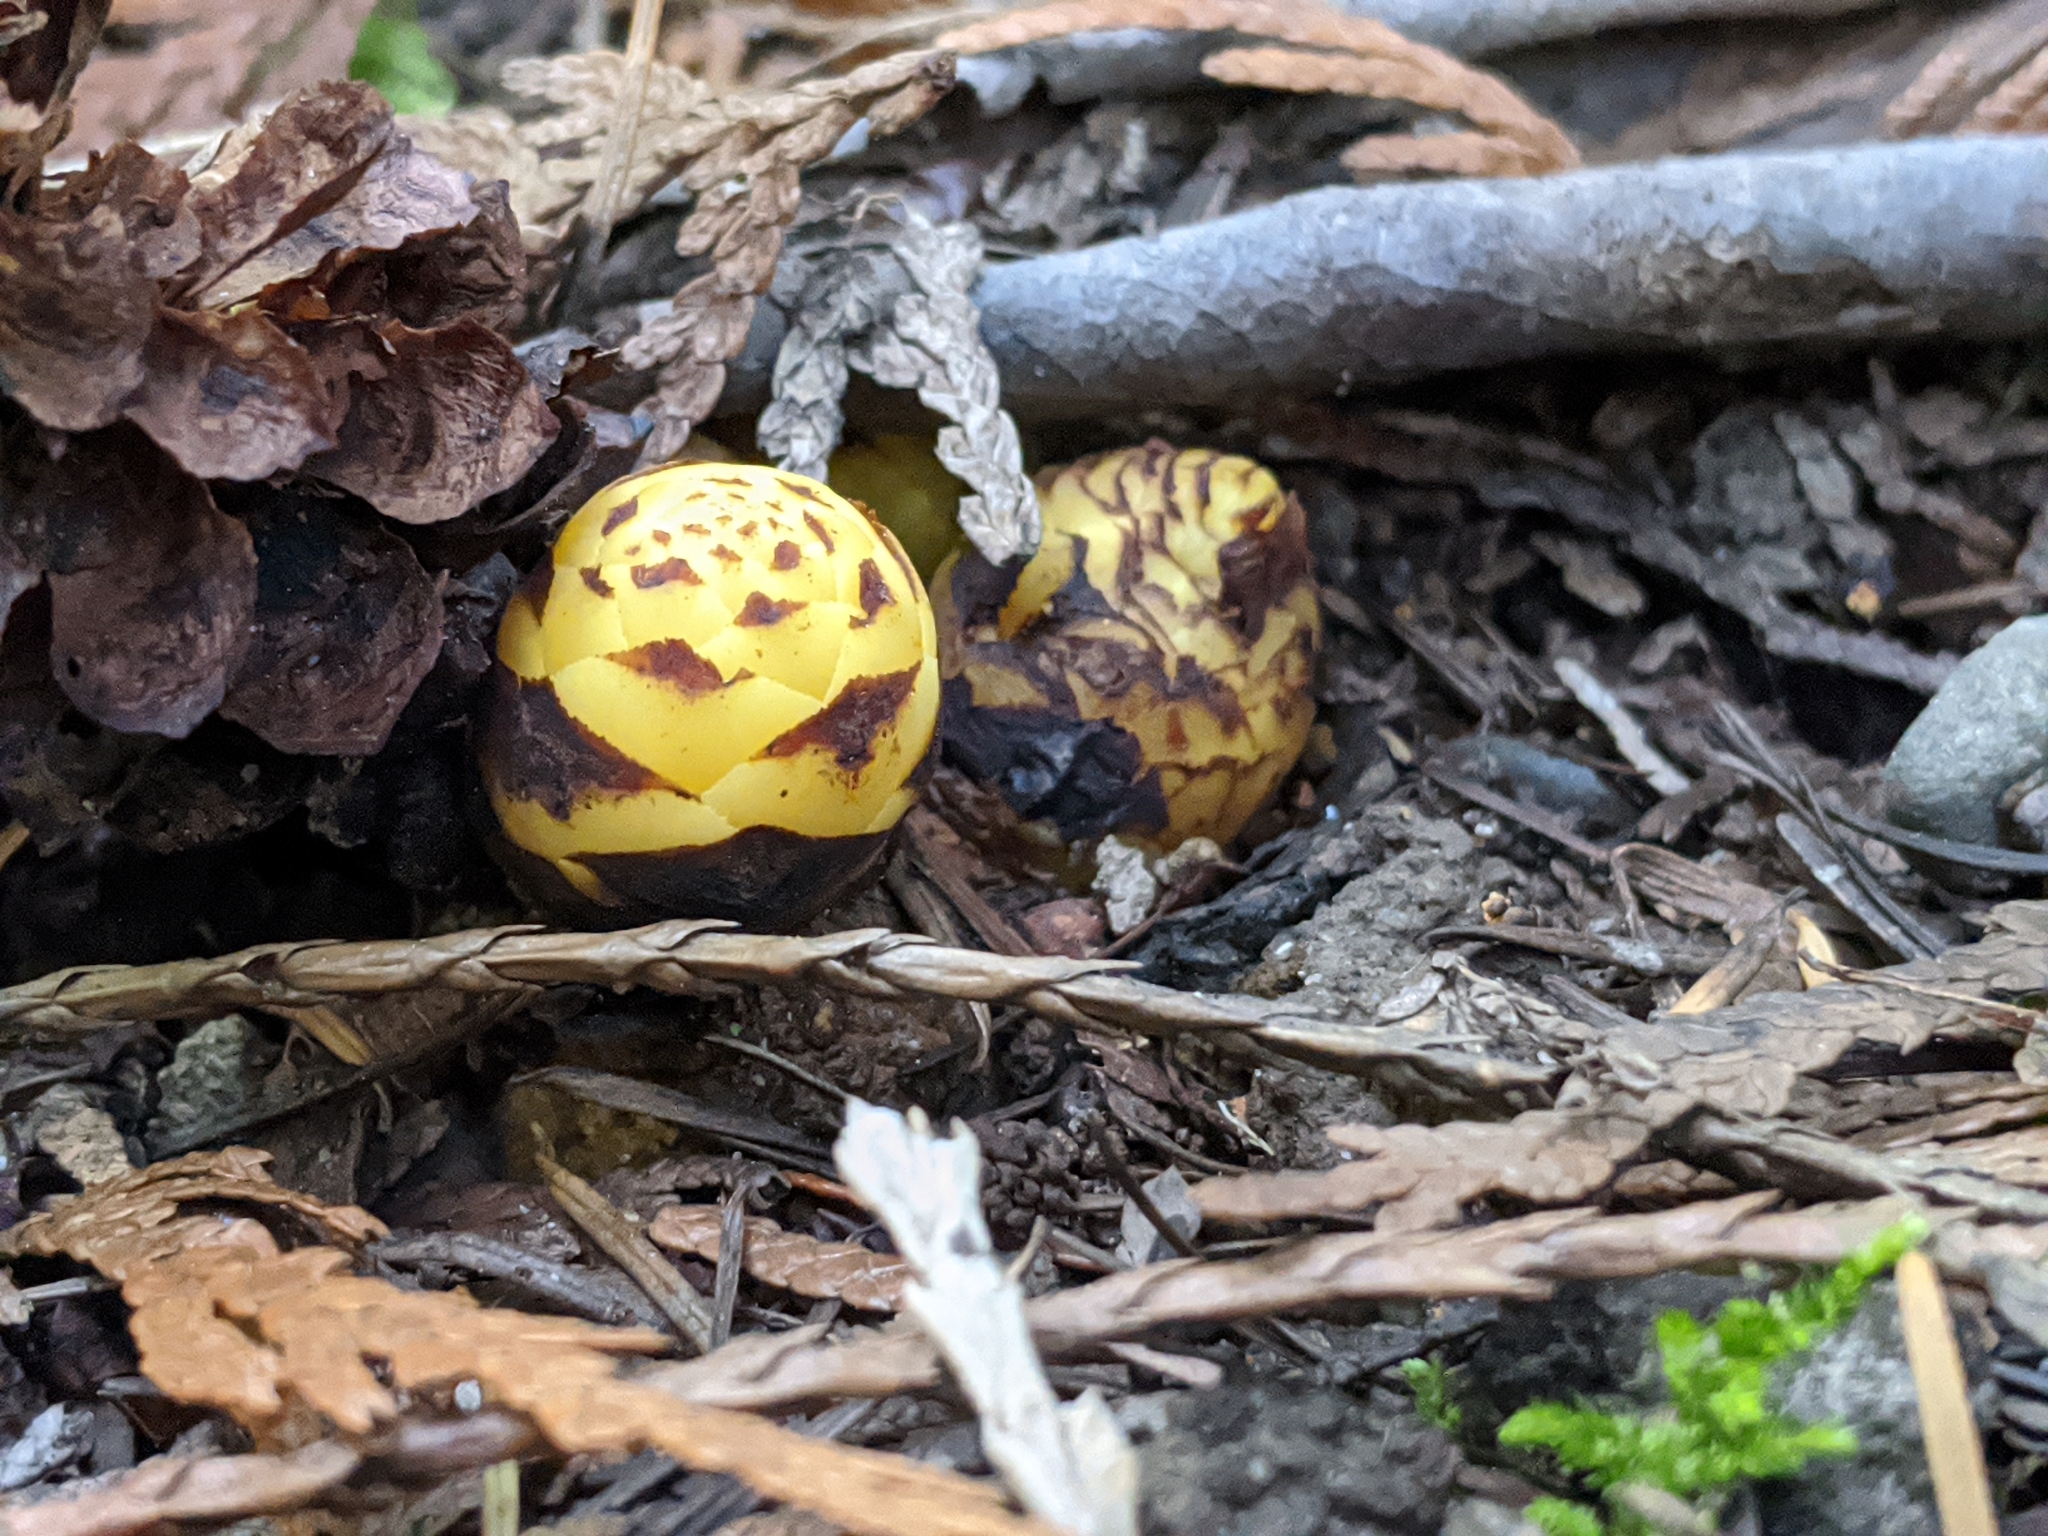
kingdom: Plantae
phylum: Tracheophyta
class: Magnoliopsida
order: Lamiales
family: Orobanchaceae
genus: Kopsiopsis
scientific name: Kopsiopsis hookeri
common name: Hooker's groundcone
